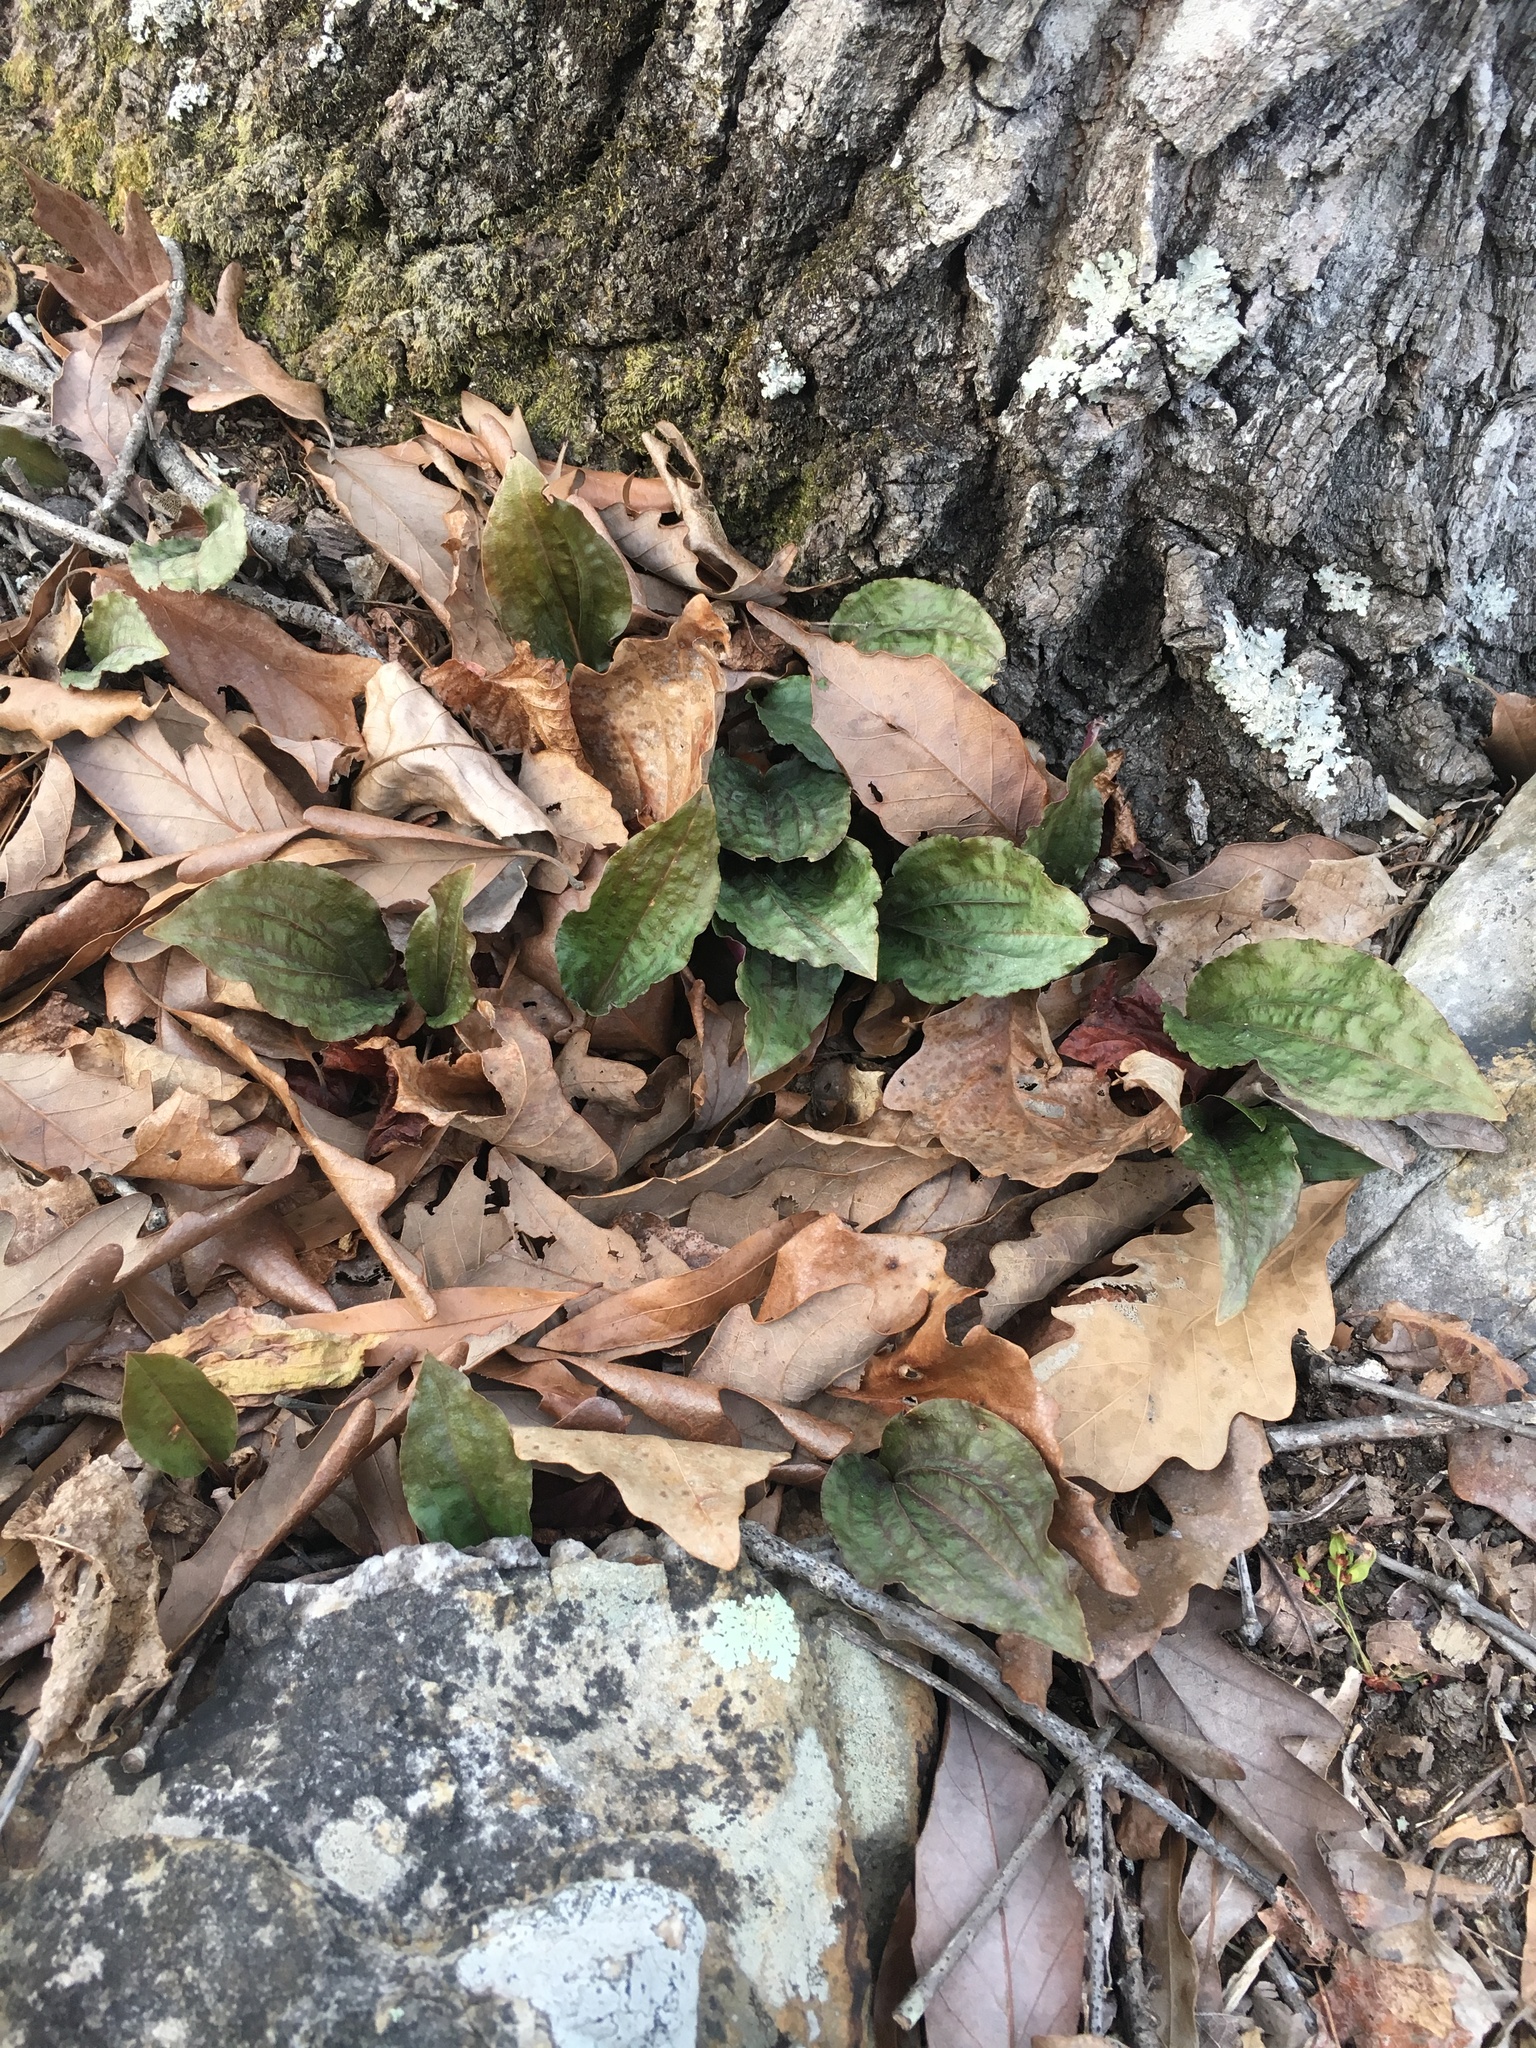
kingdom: Plantae
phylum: Tracheophyta
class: Liliopsida
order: Asparagales
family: Orchidaceae
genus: Tipularia
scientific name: Tipularia discolor
